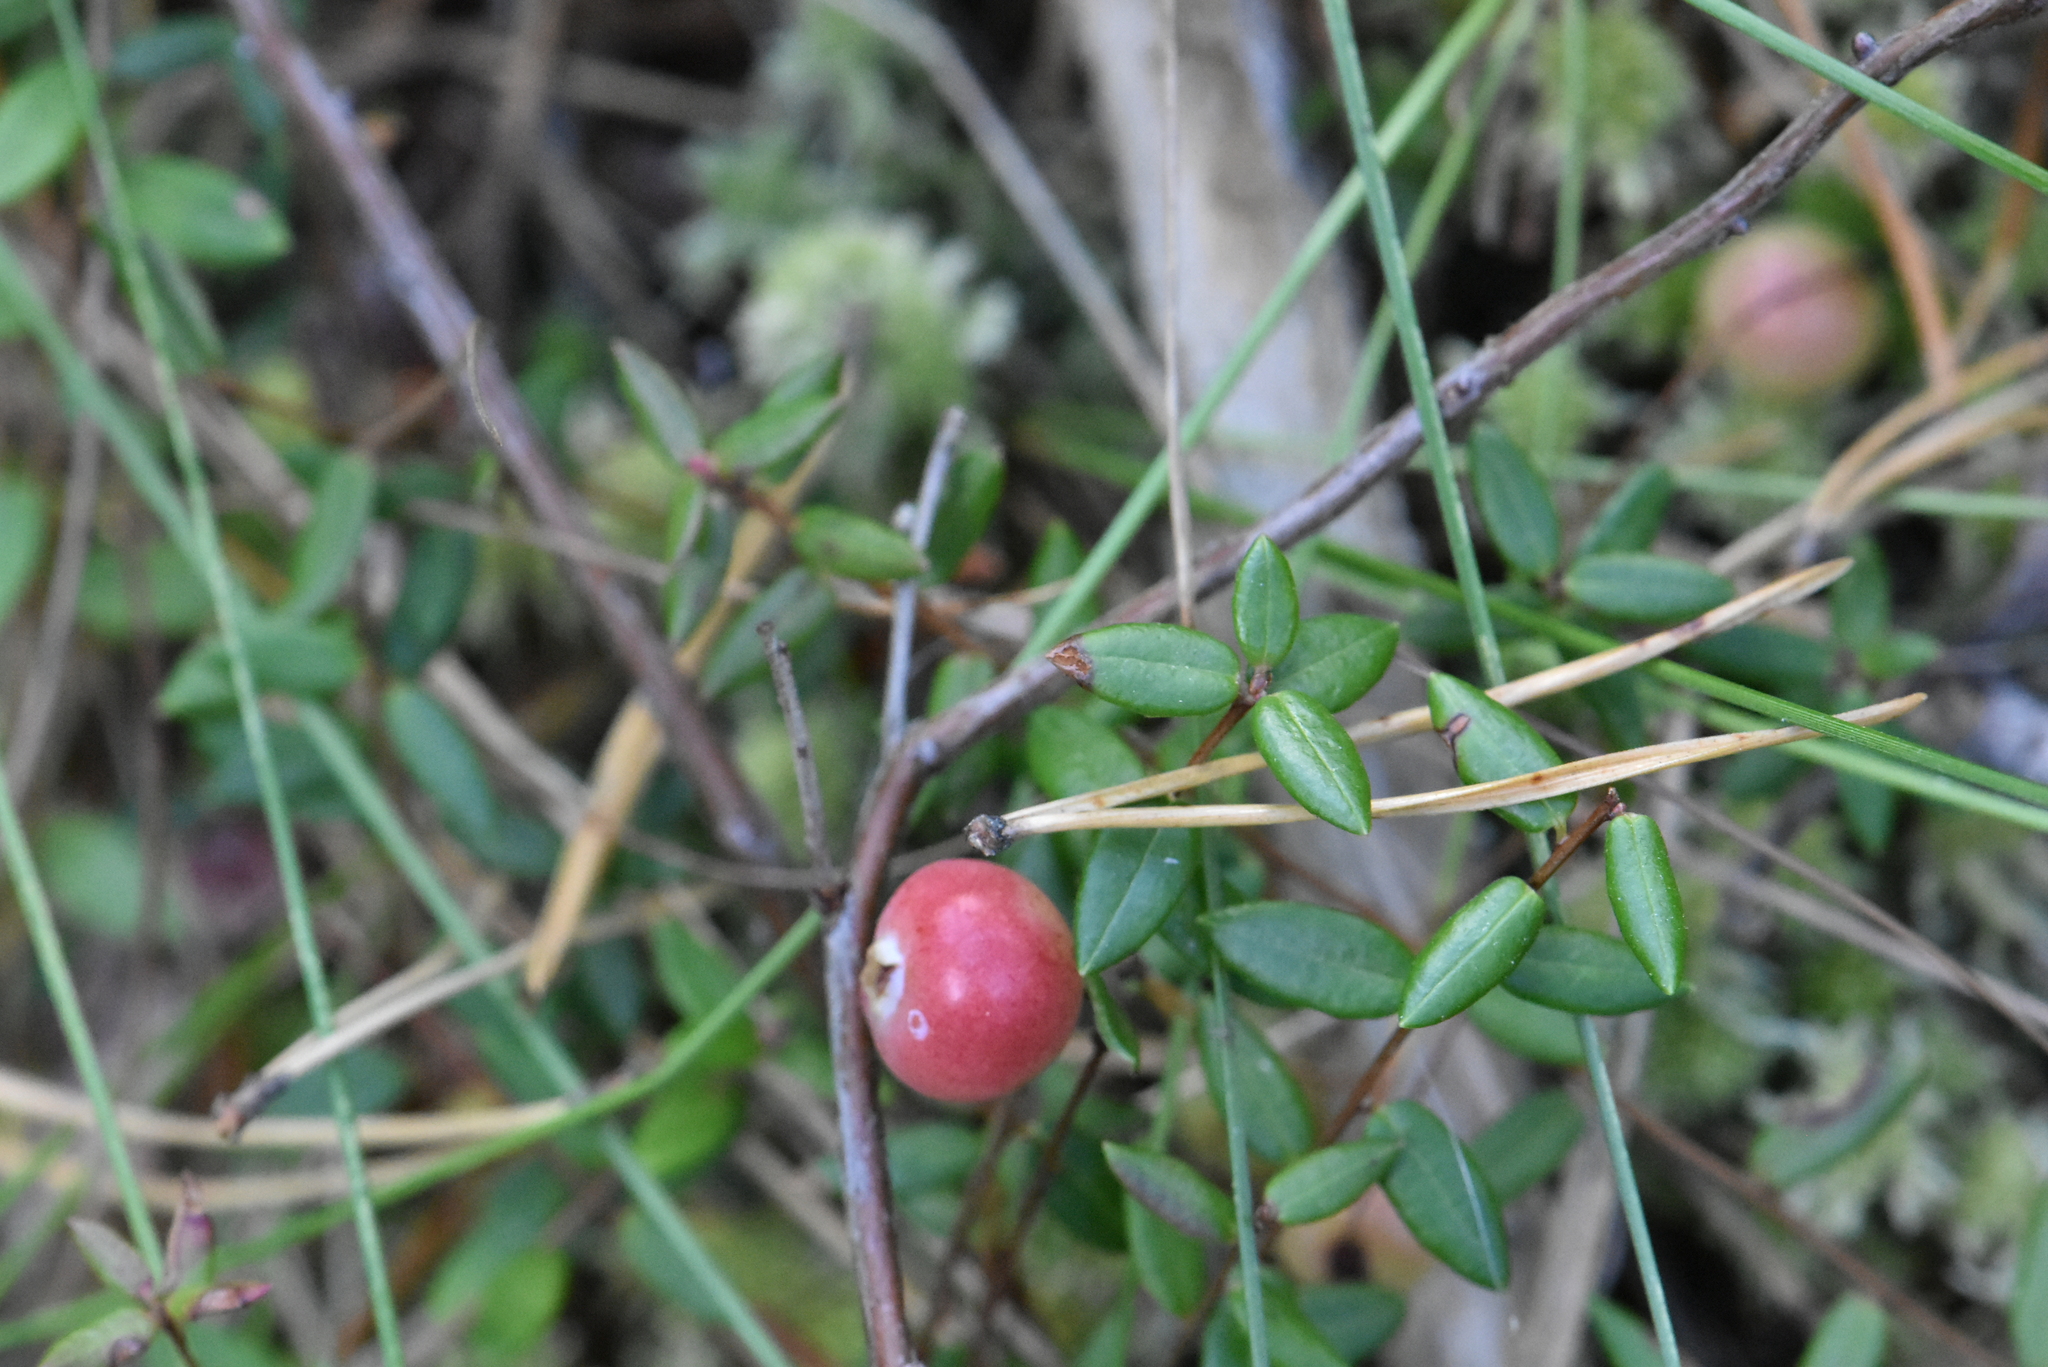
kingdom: Plantae
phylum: Tracheophyta
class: Magnoliopsida
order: Ericales
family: Ericaceae
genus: Vaccinium
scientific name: Vaccinium oxycoccos
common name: Cranberry
